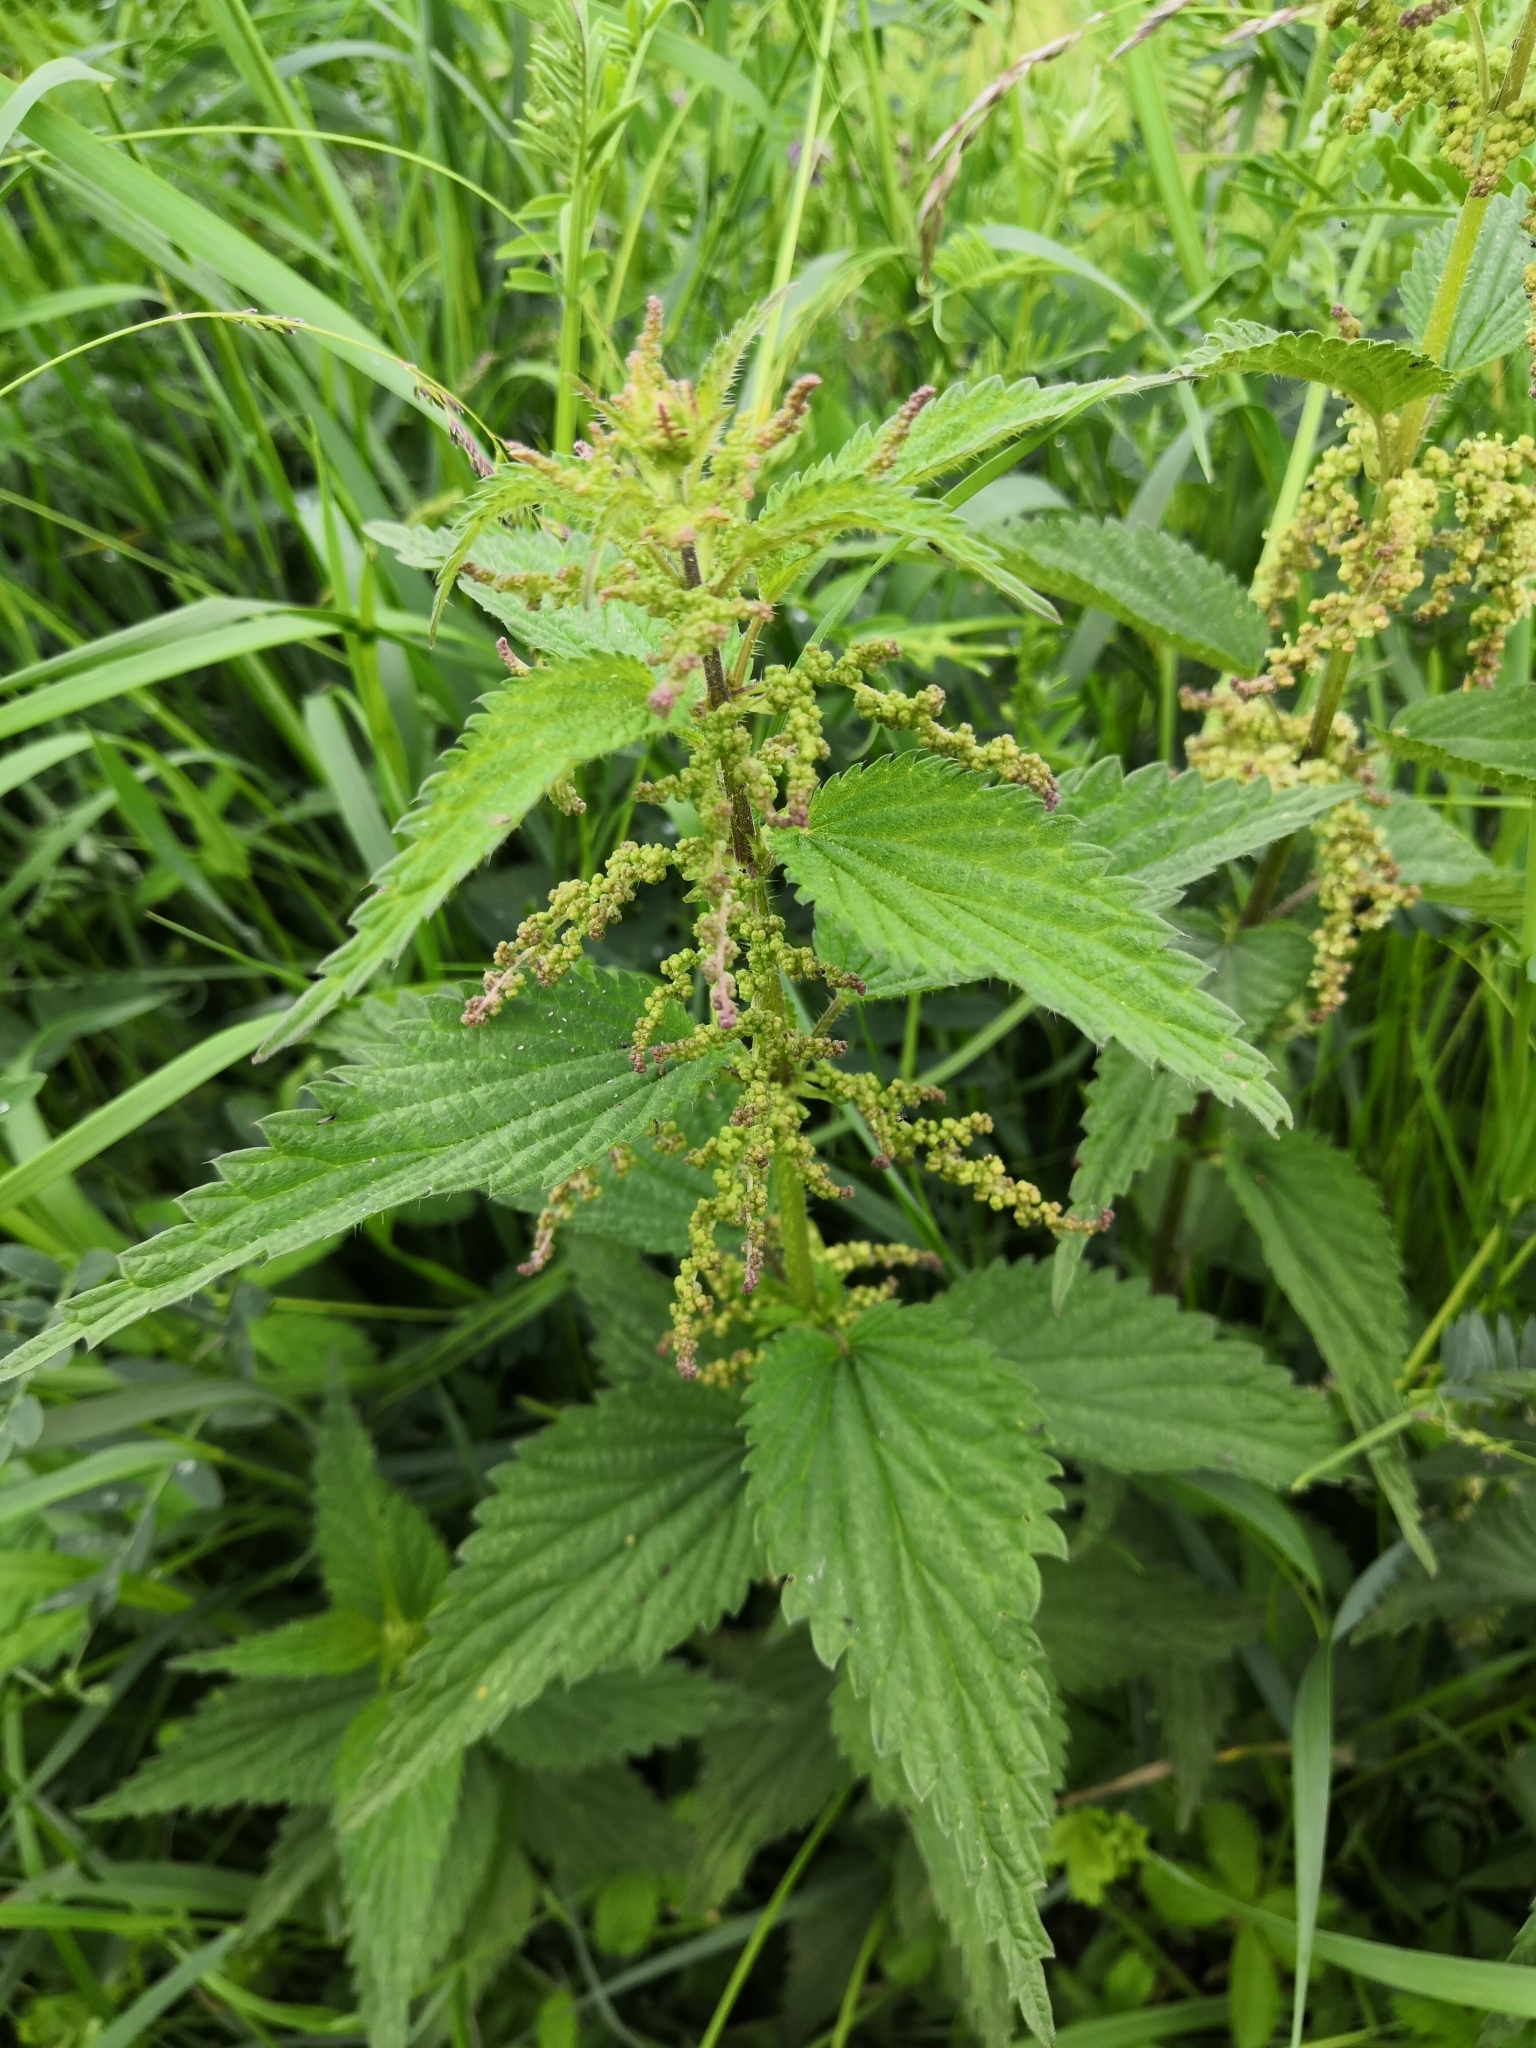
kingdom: Plantae
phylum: Tracheophyta
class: Magnoliopsida
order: Rosales
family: Urticaceae
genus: Urtica
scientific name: Urtica dioica
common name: Common nettle
